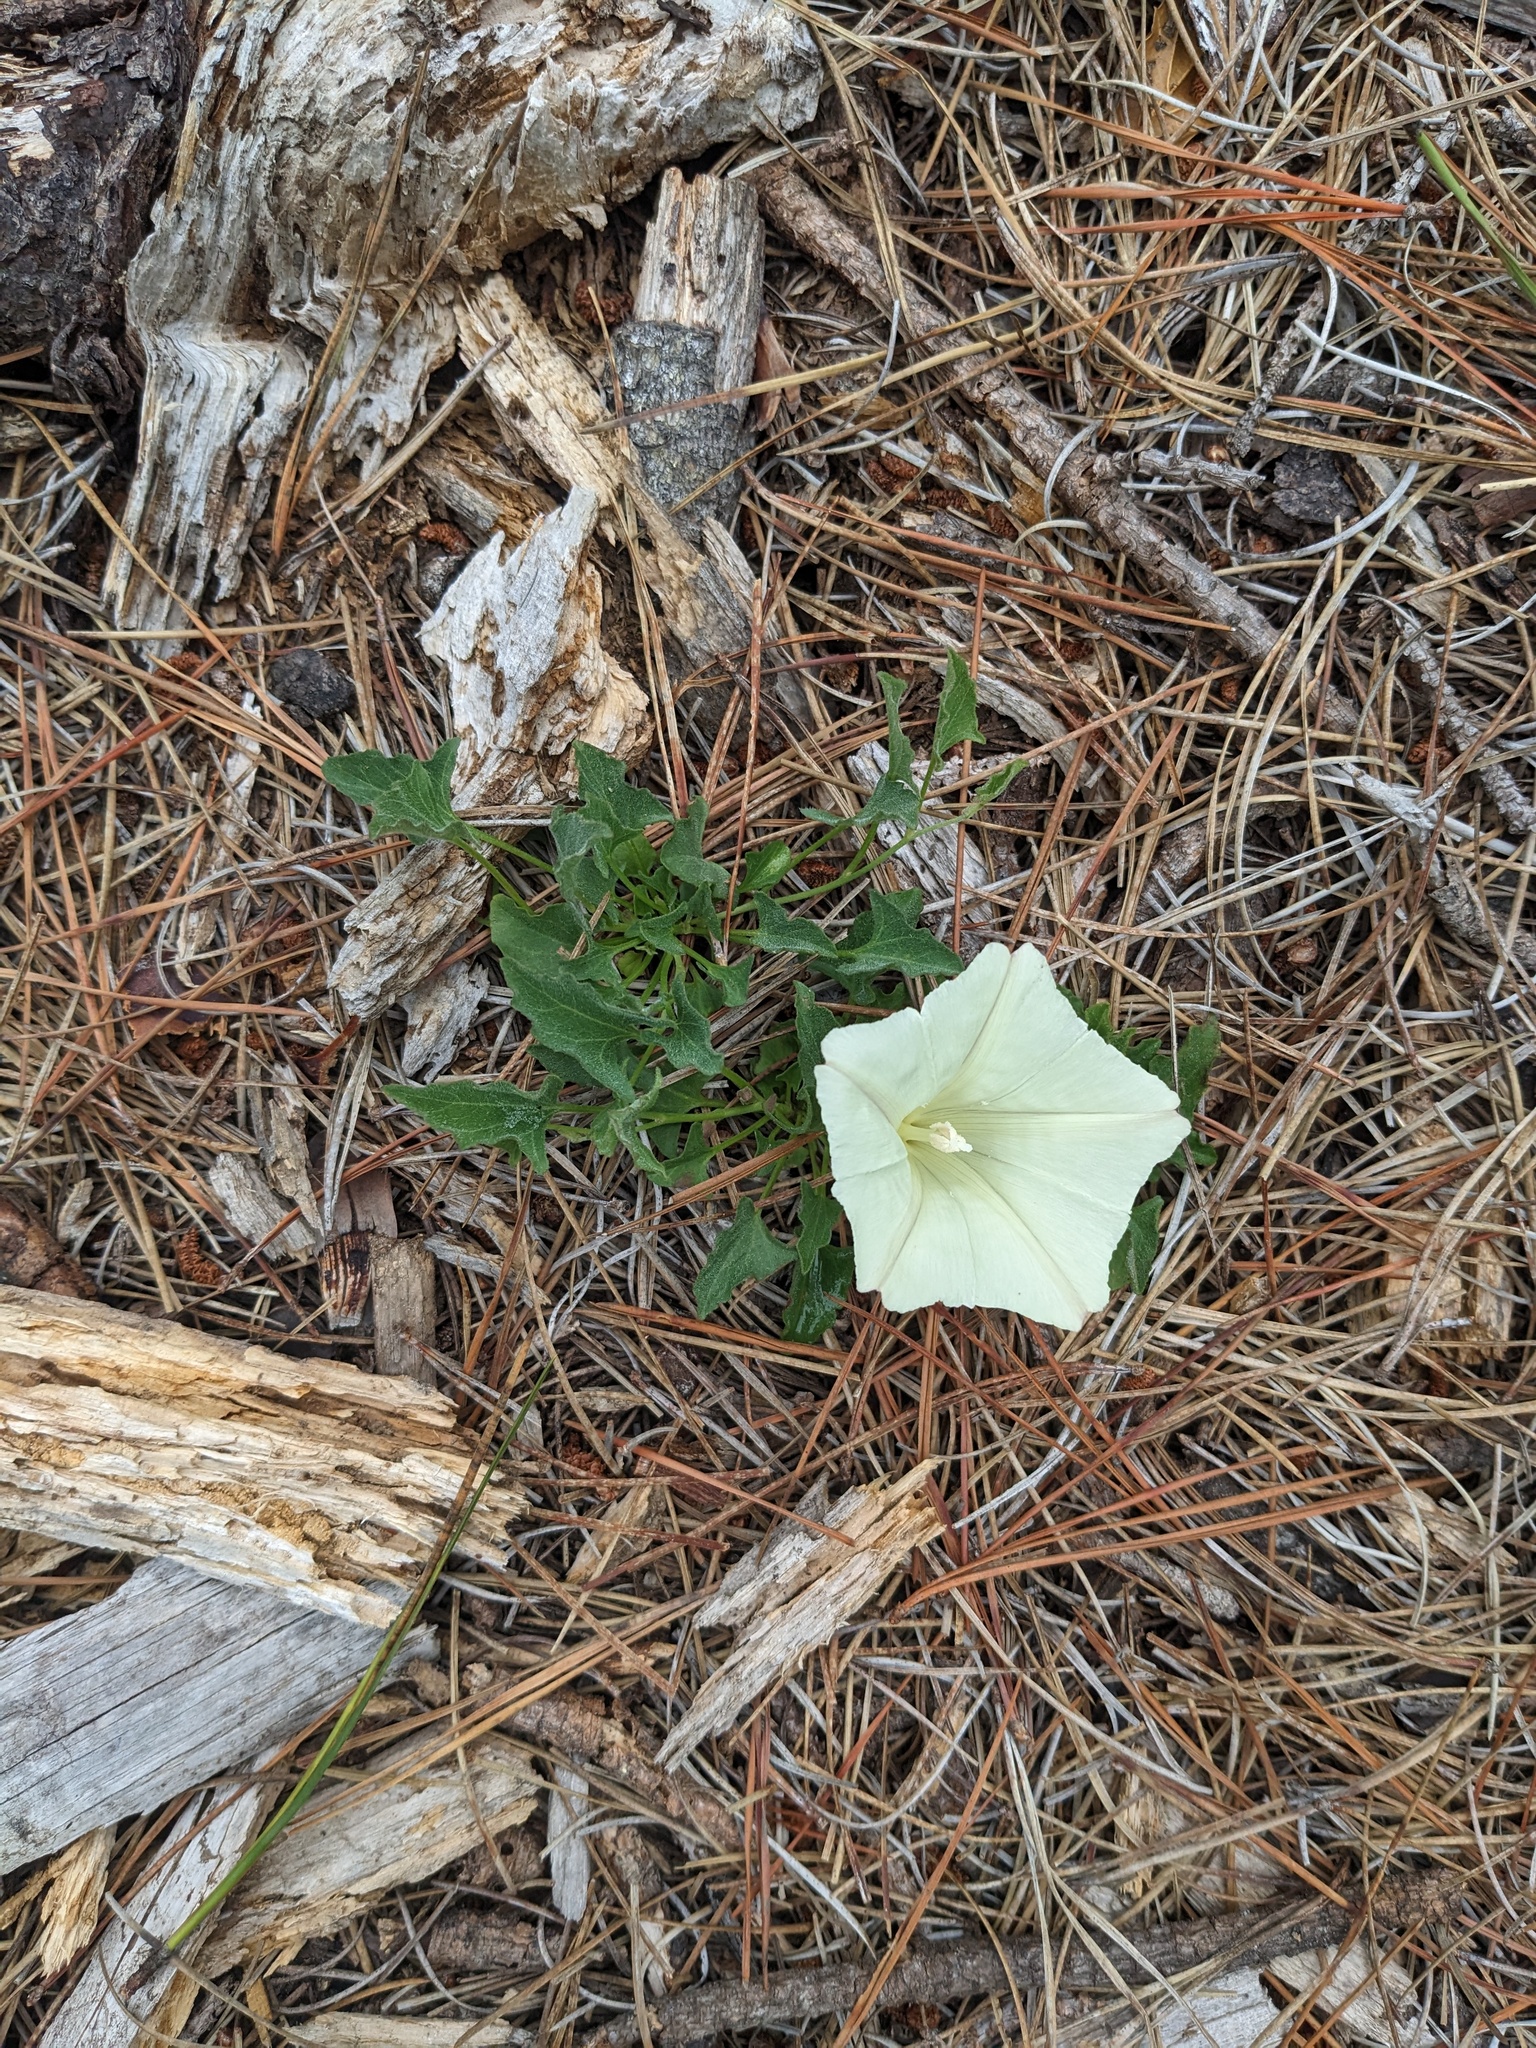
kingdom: Plantae
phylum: Tracheophyta
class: Magnoliopsida
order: Solanales
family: Convolvulaceae
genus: Calystegia
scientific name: Calystegia subacaulis
